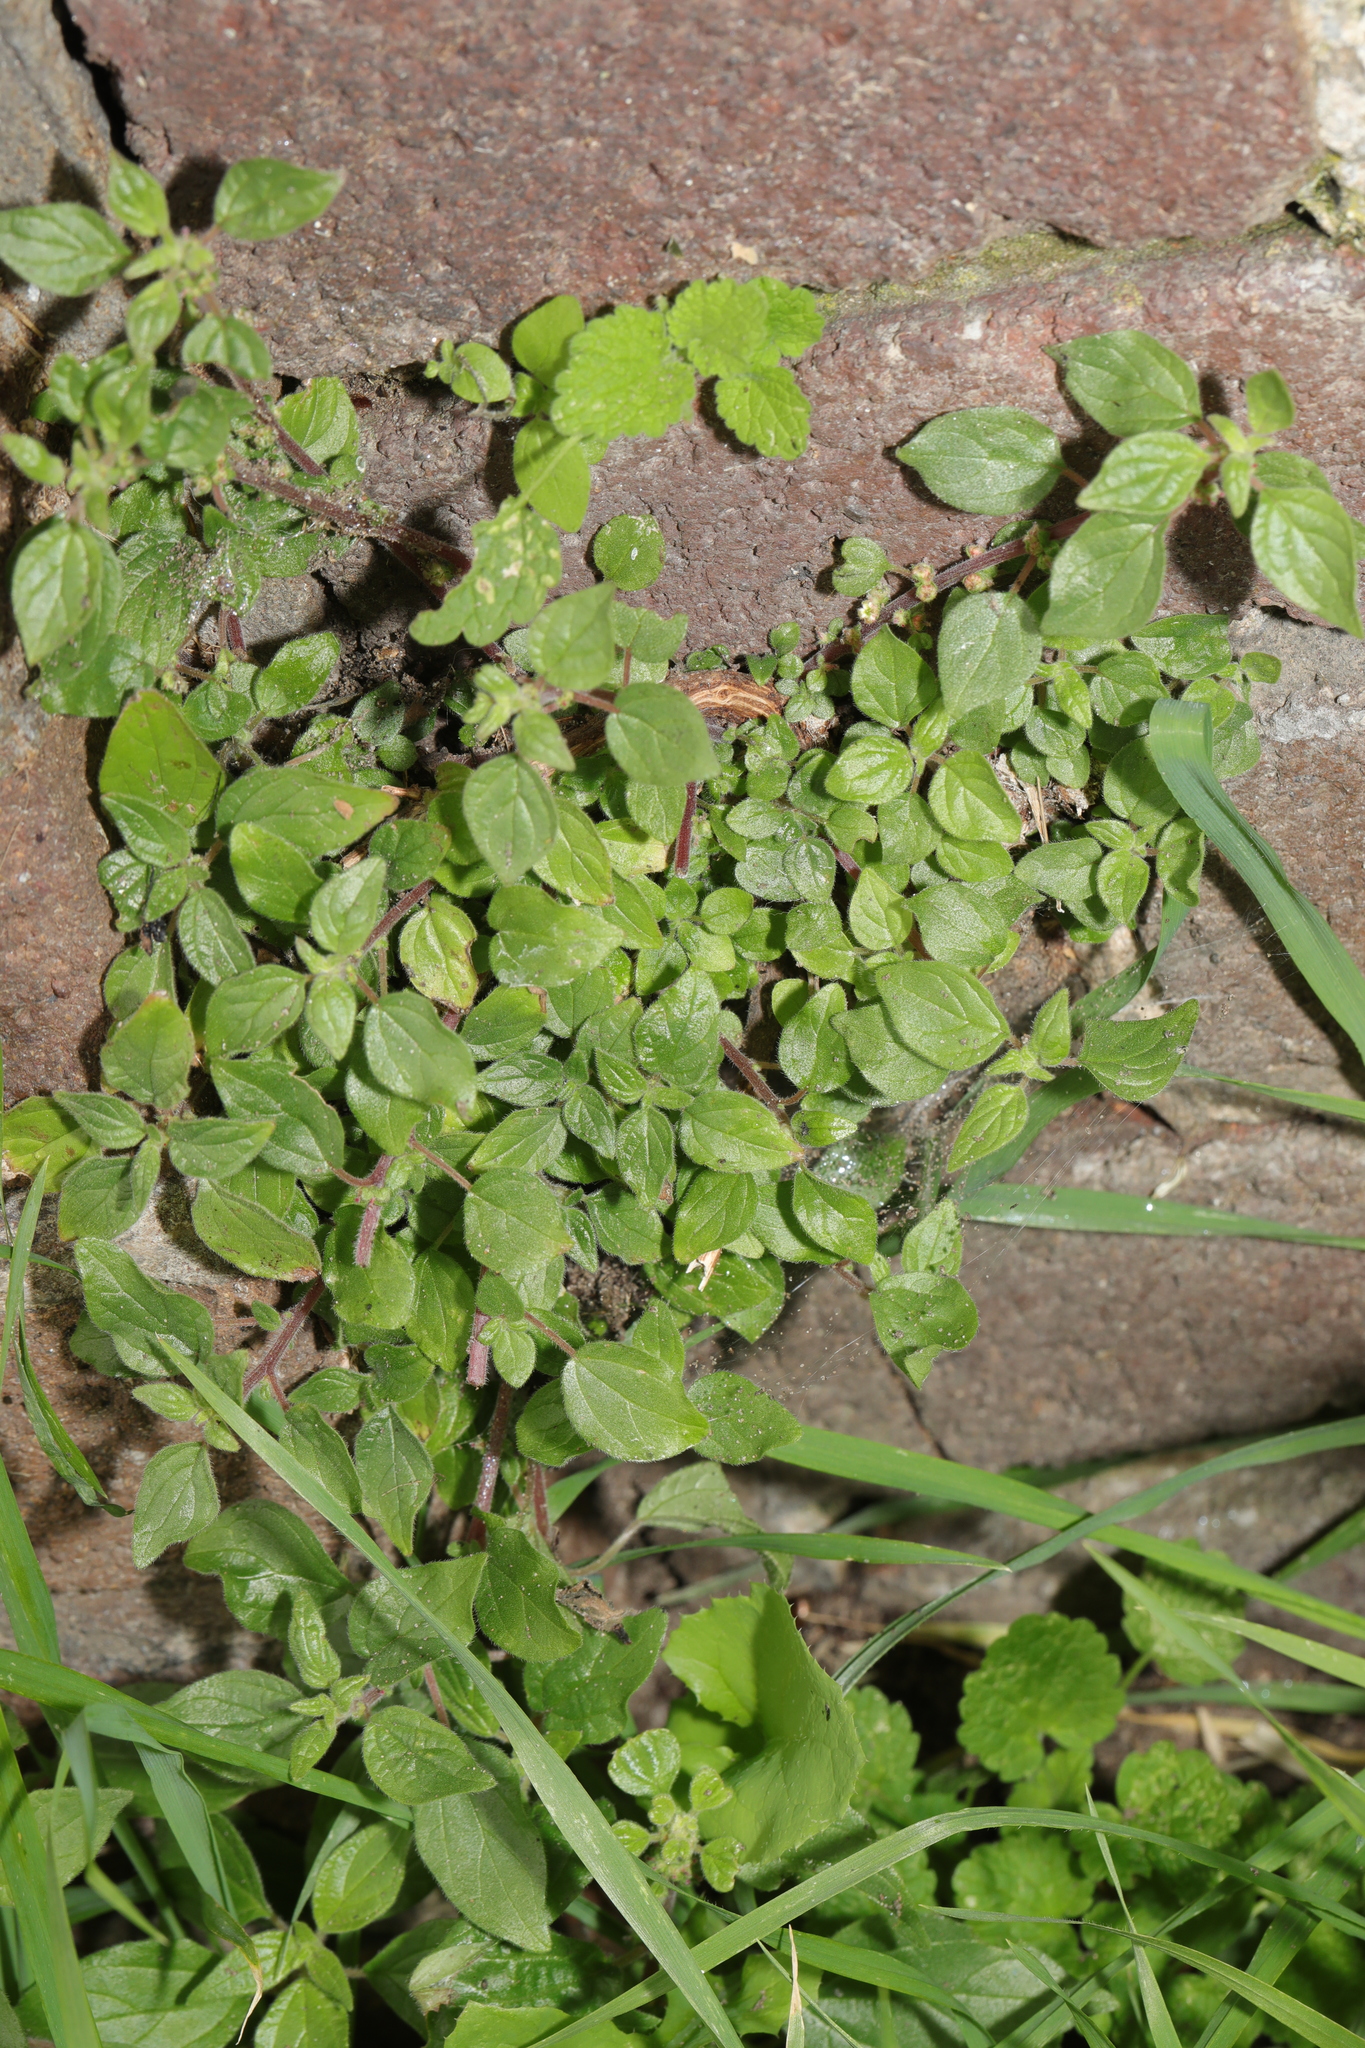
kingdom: Plantae
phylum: Tracheophyta
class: Magnoliopsida
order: Rosales
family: Urticaceae
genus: Parietaria
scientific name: Parietaria judaica
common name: Pellitory-of-the-wall
